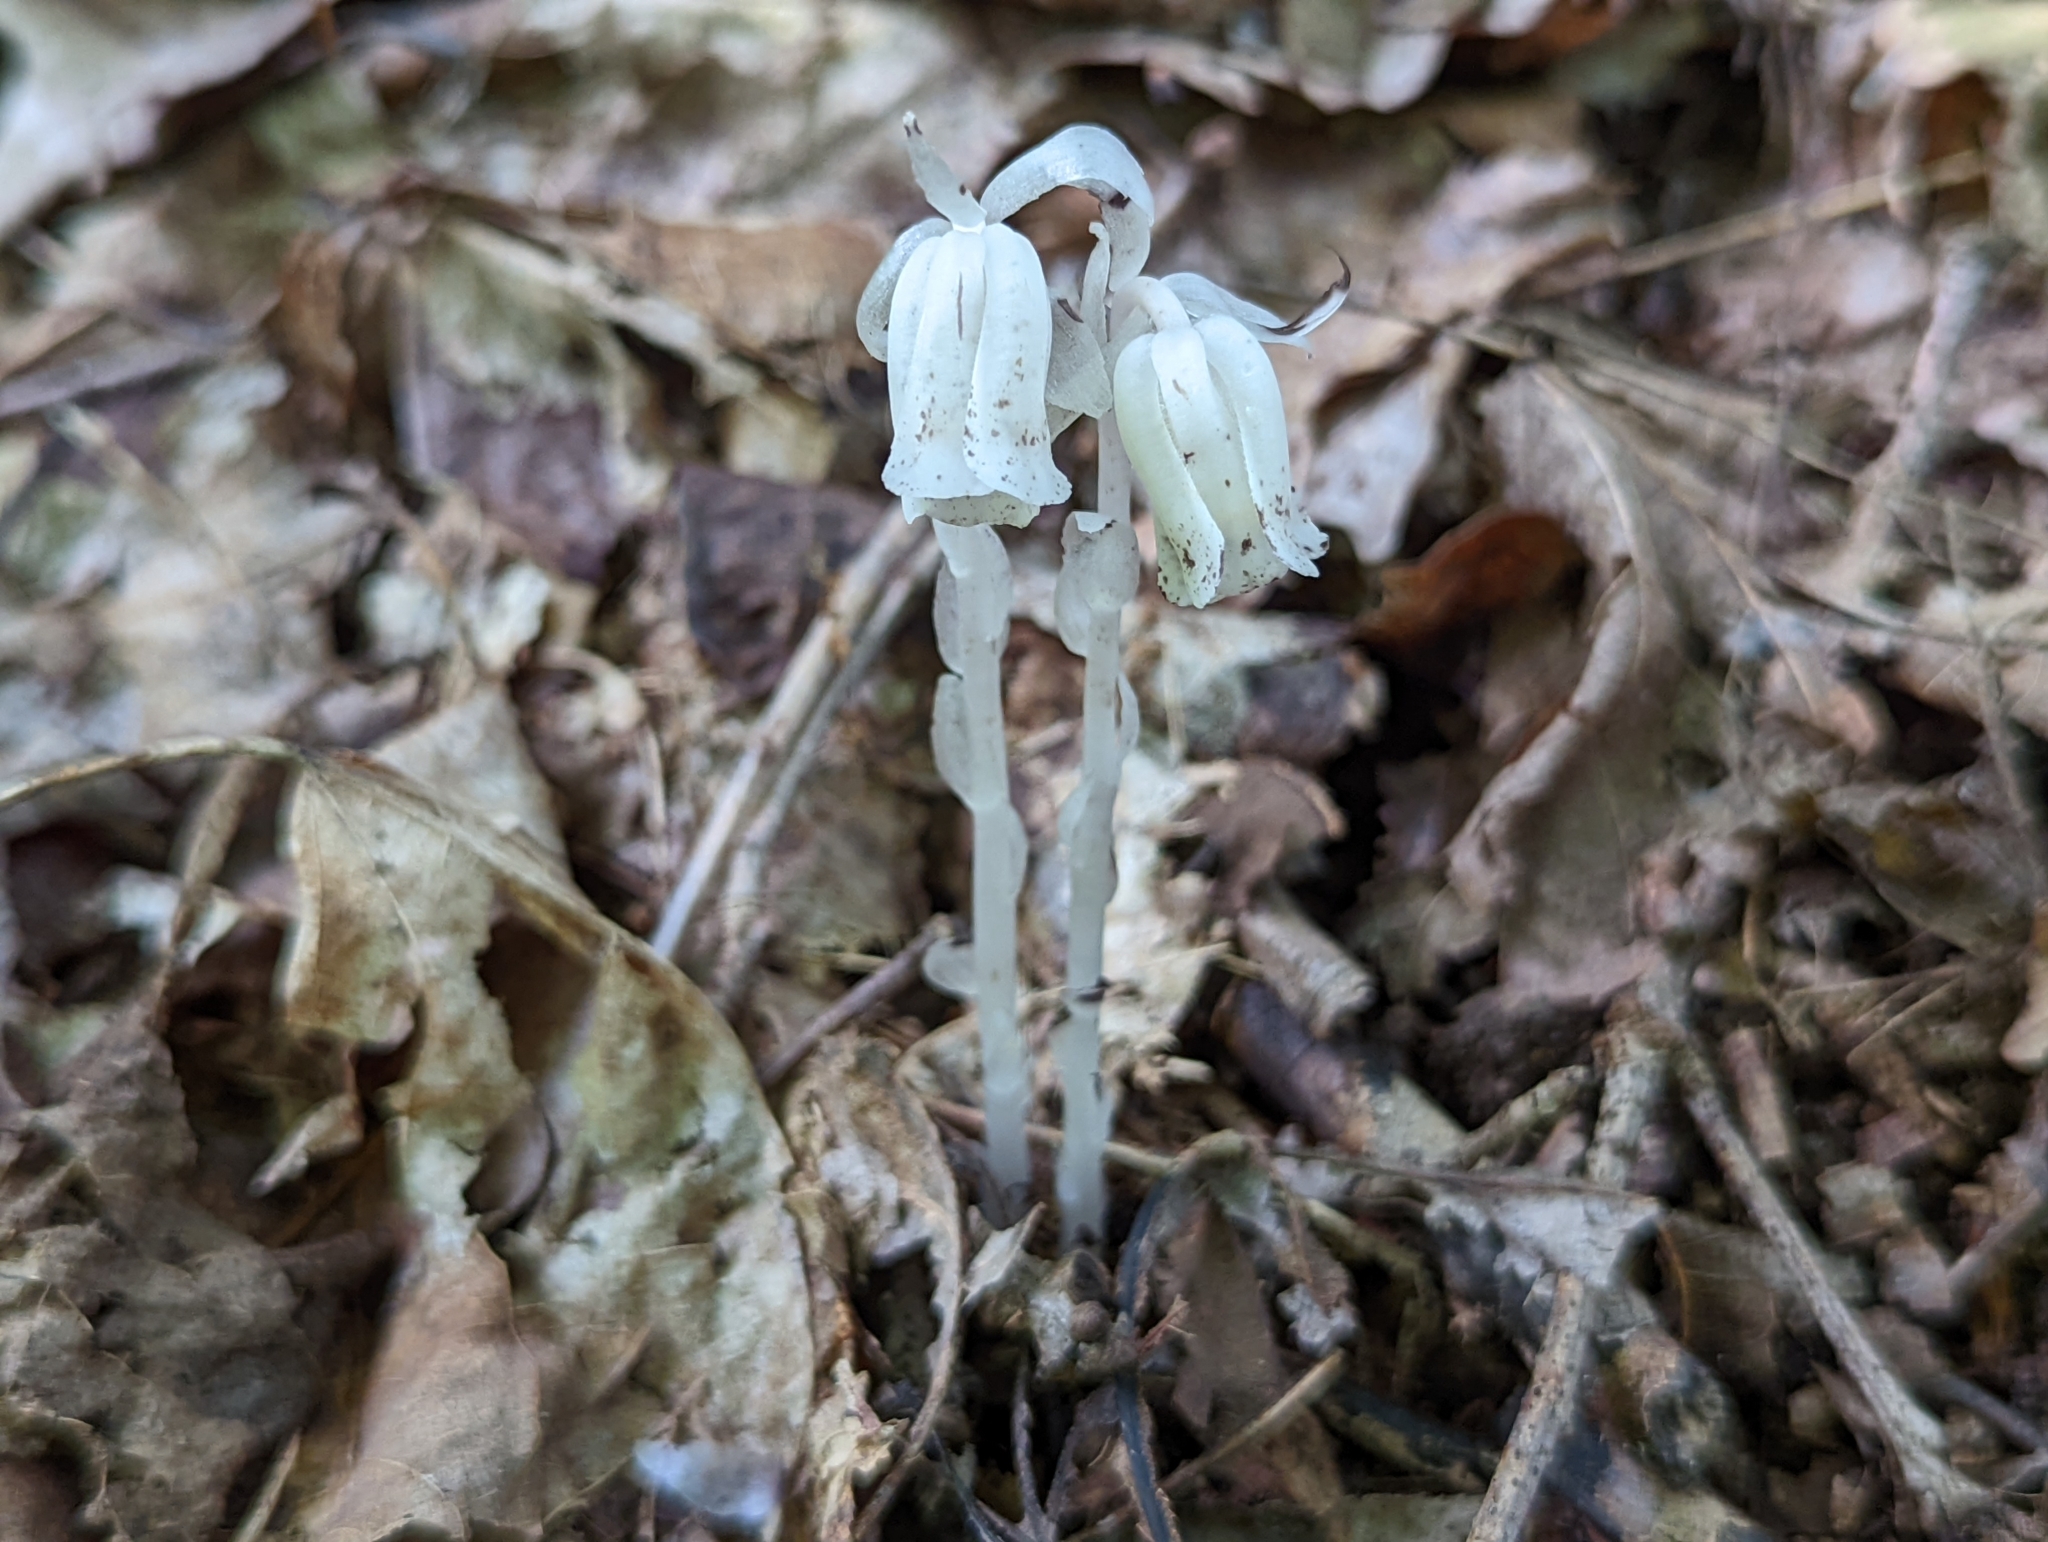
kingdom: Plantae
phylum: Tracheophyta
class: Magnoliopsida
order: Ericales
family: Ericaceae
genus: Monotropa
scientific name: Monotropa uniflora
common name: Convulsion root
